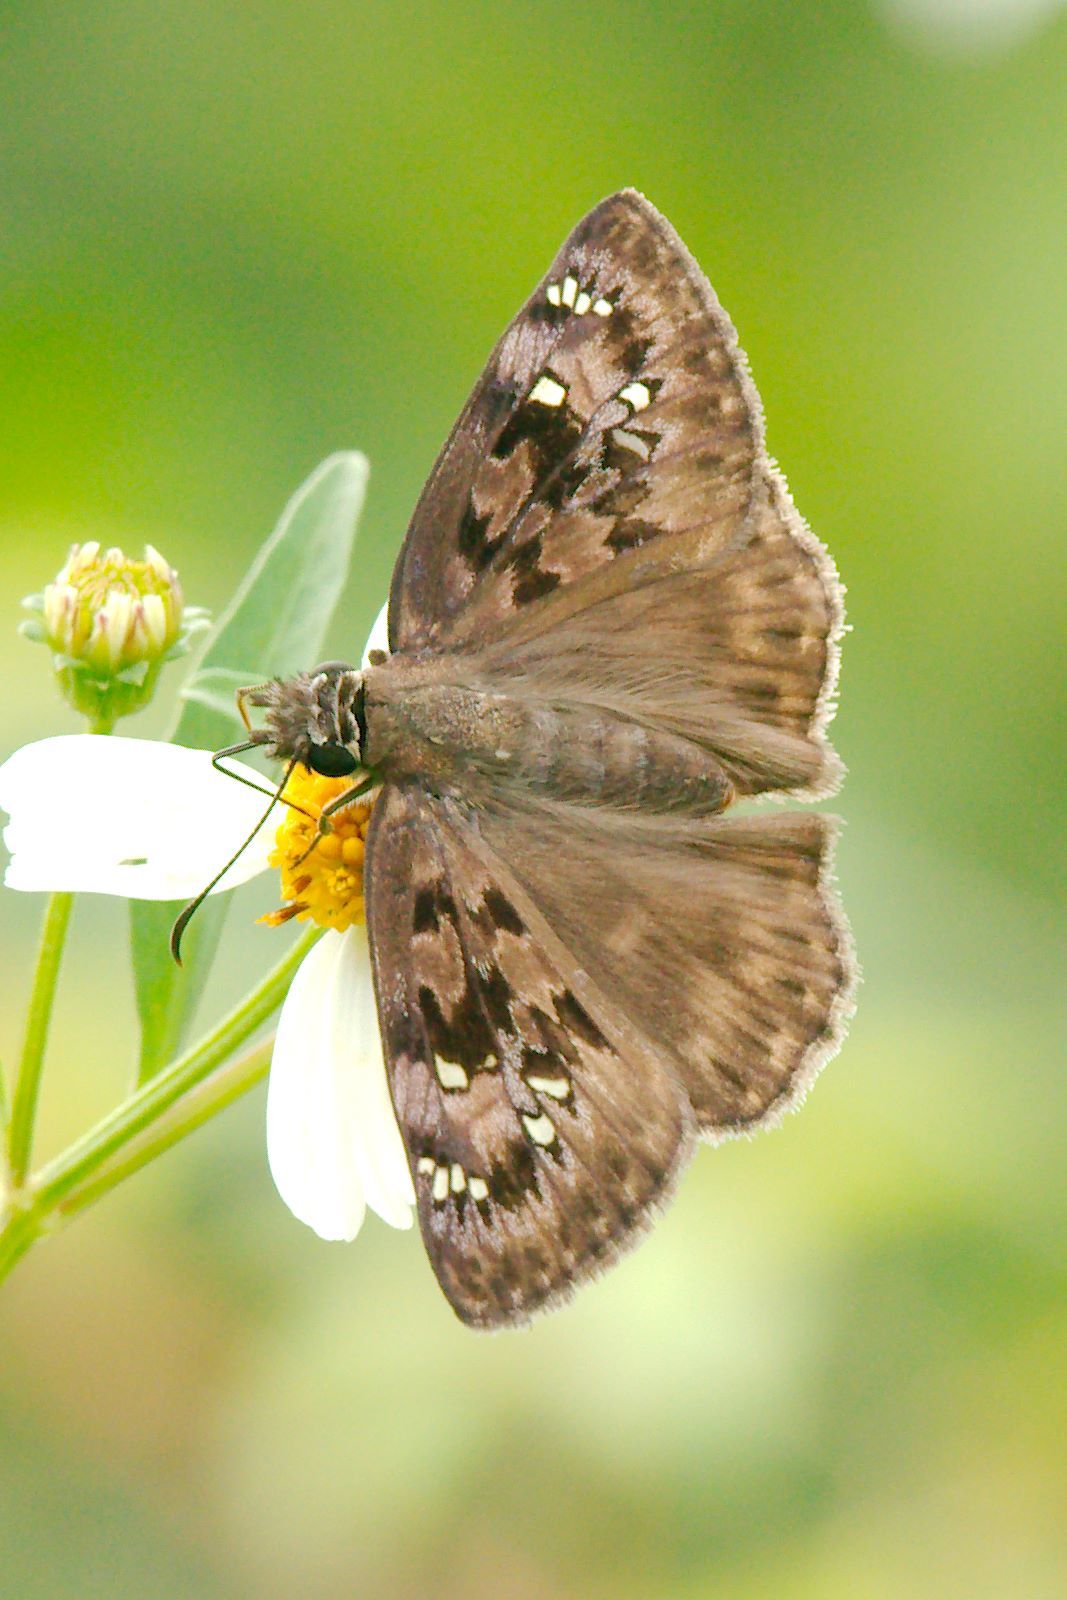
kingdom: Animalia
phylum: Arthropoda
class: Insecta
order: Lepidoptera
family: Hesperiidae
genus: Erynnis
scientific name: Erynnis horatius
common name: Horace's duskywing
